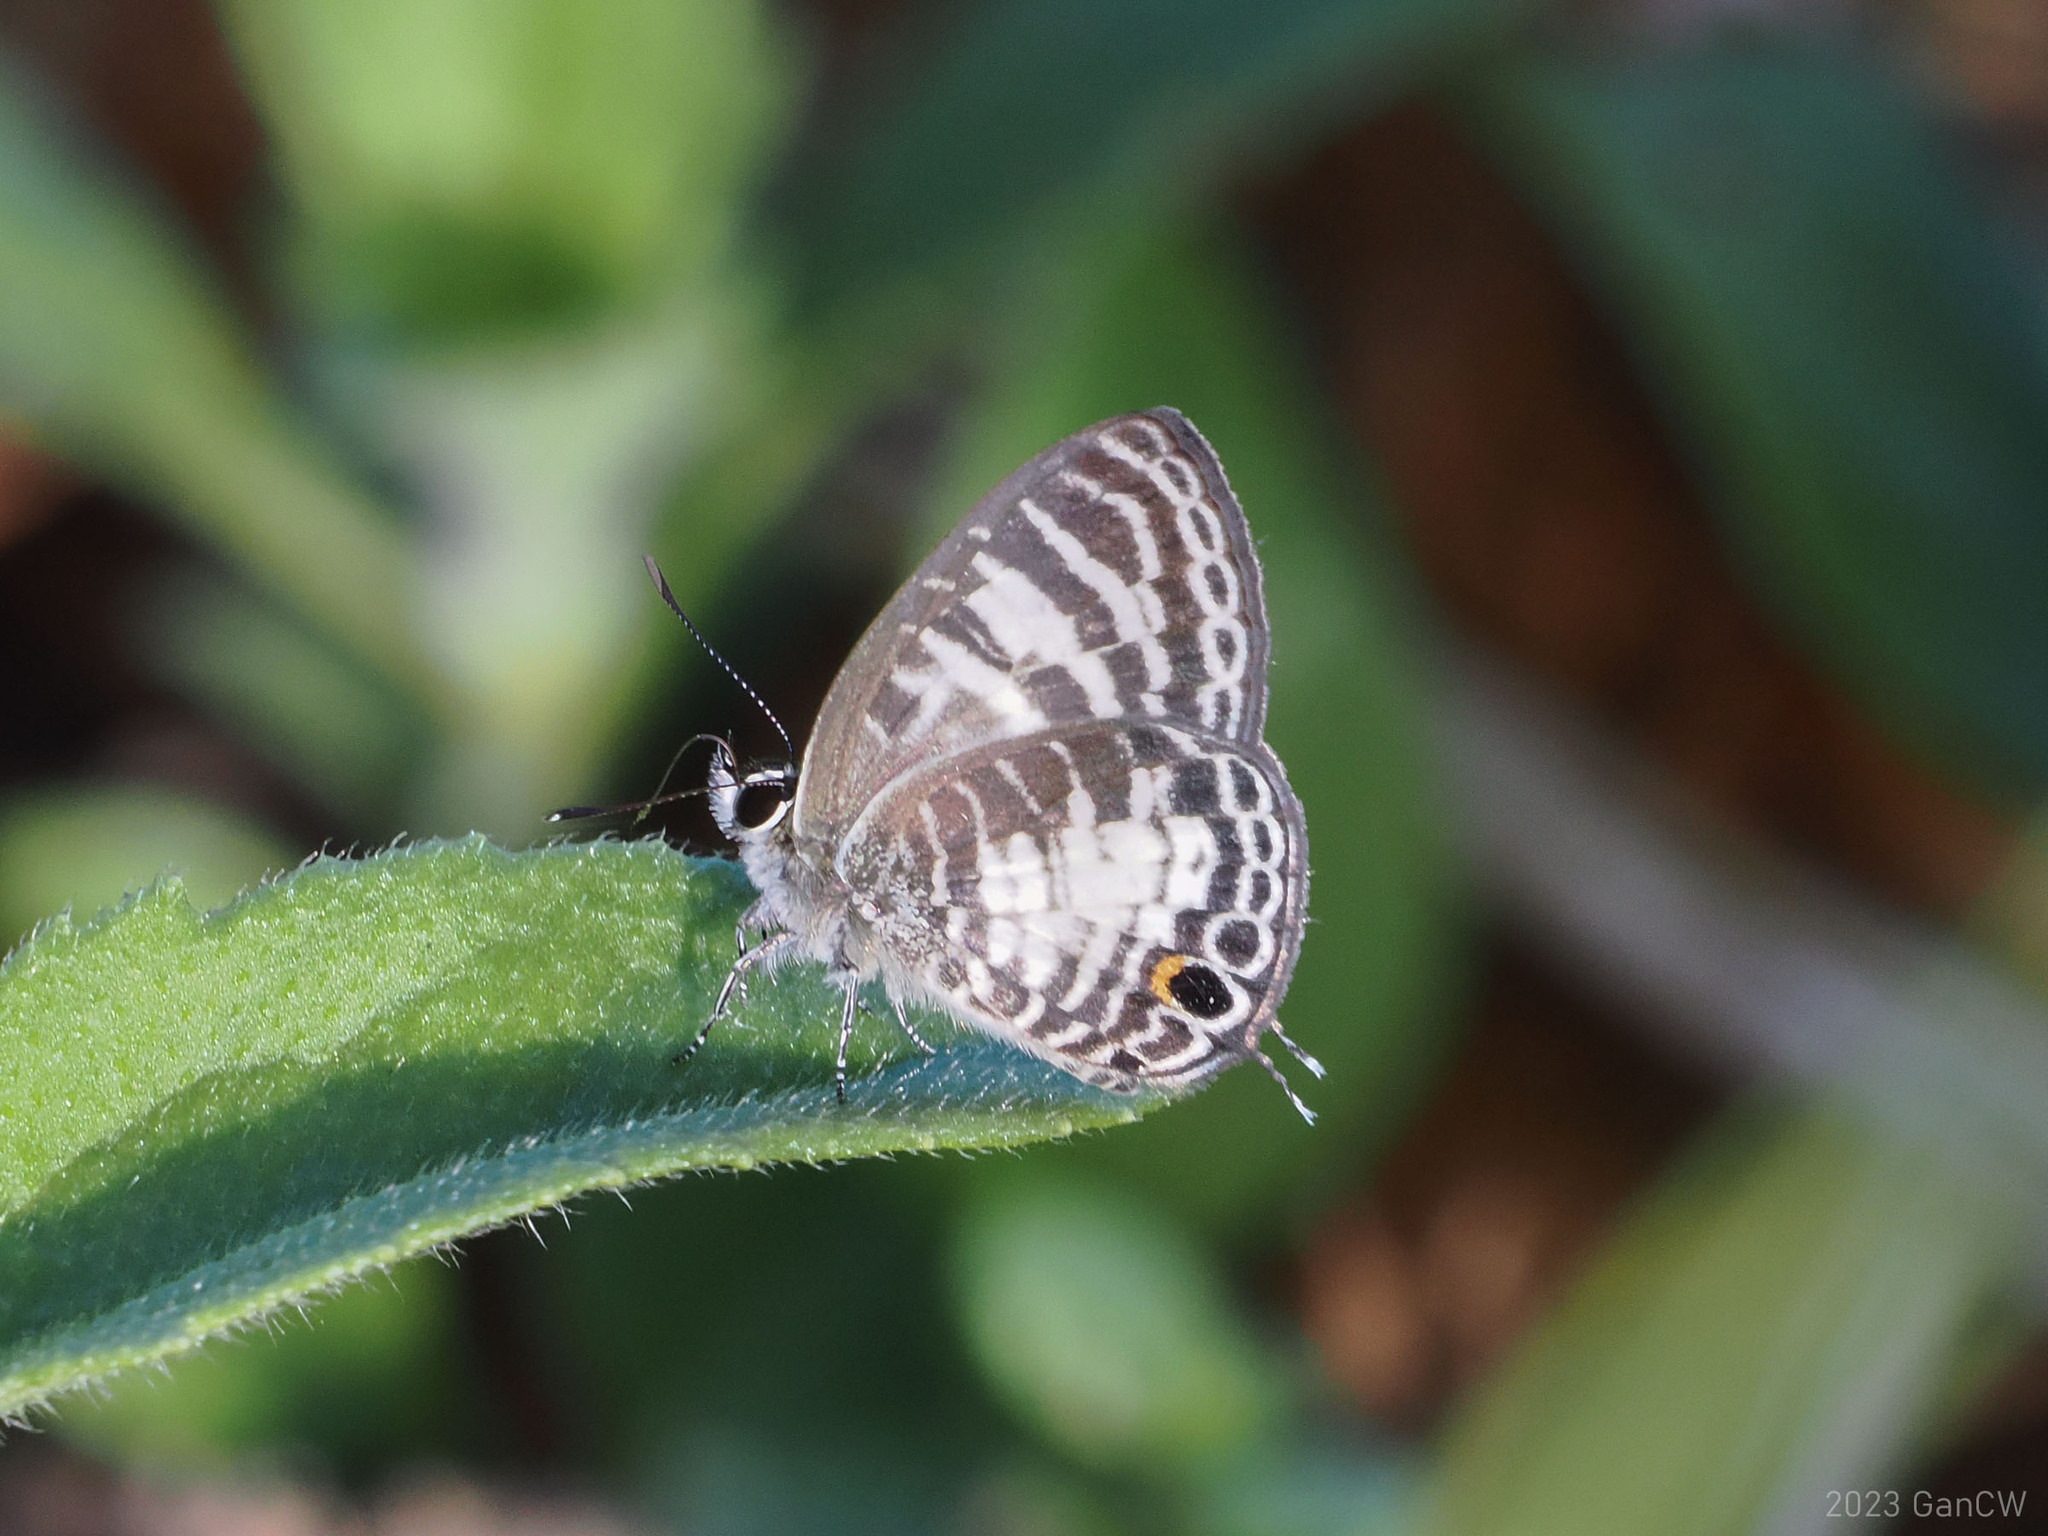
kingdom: Animalia
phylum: Arthropoda
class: Insecta
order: Lepidoptera
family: Lycaenidae
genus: Nacaduba
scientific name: Nacaduba sericina
